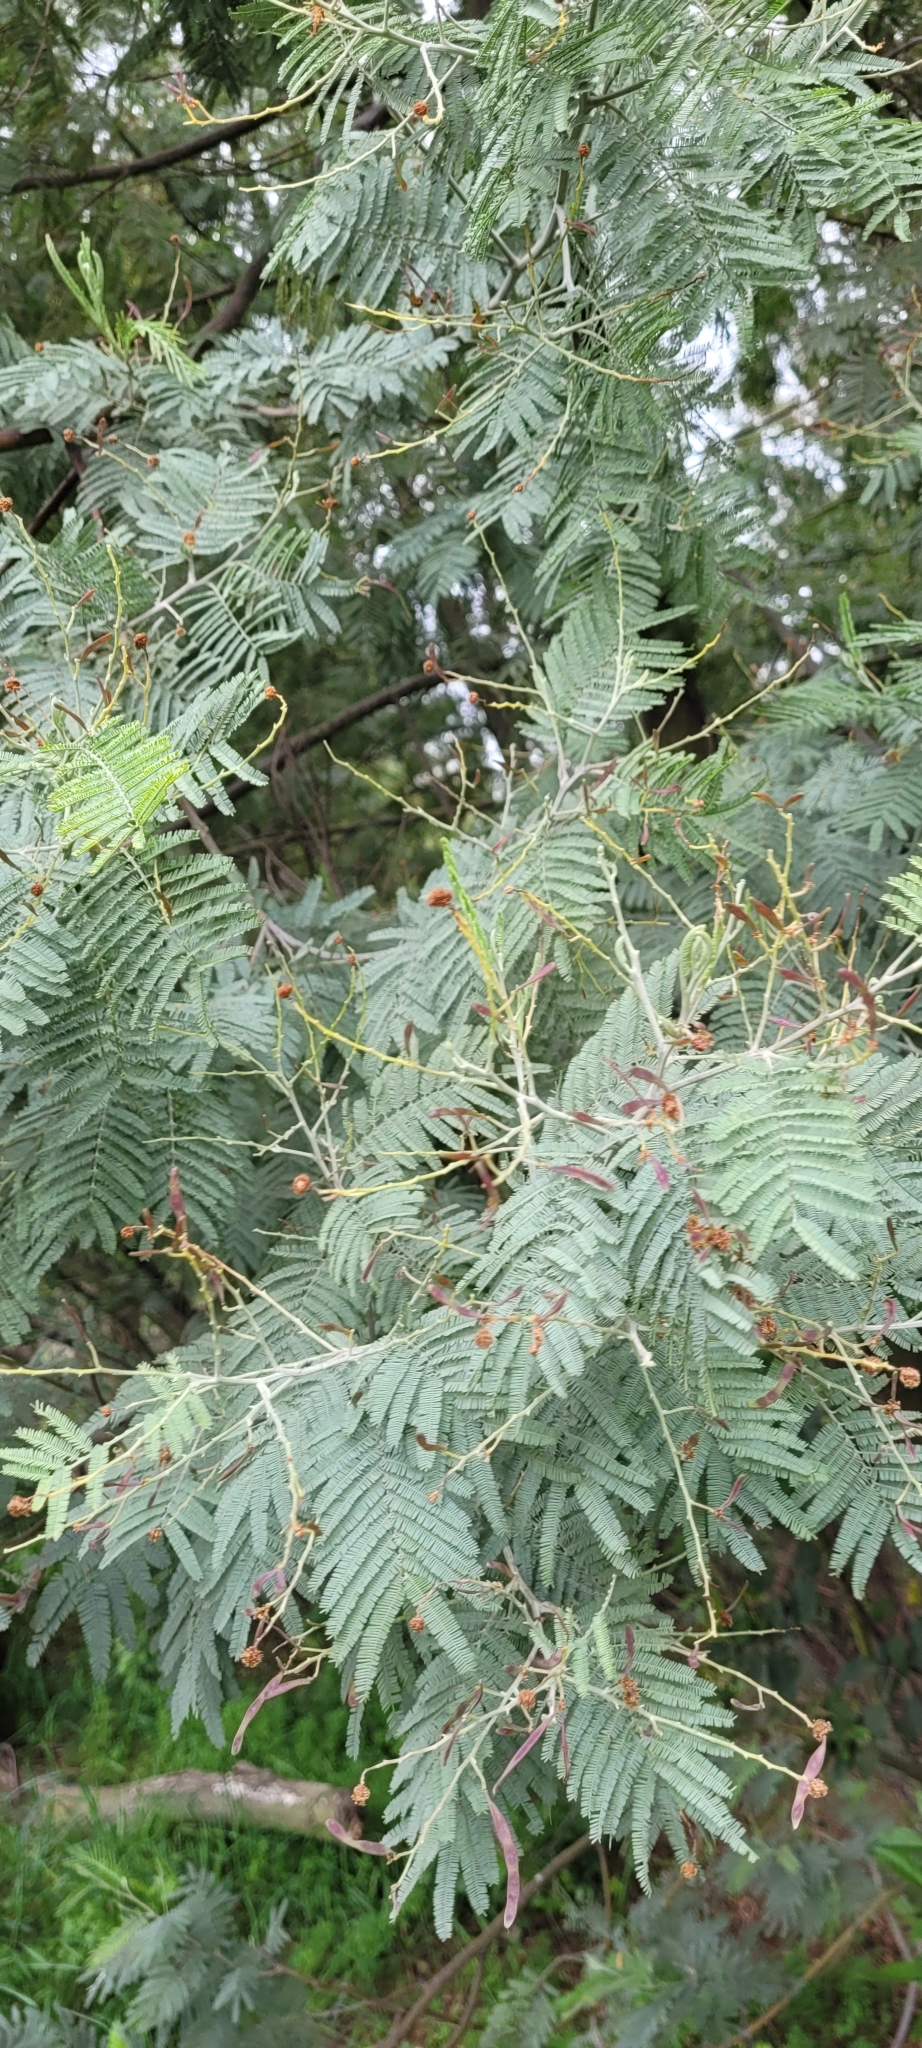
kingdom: Plantae
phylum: Tracheophyta
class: Magnoliopsida
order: Fabales
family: Fabaceae
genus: Acacia
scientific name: Acacia dealbata
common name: Silver wattle
